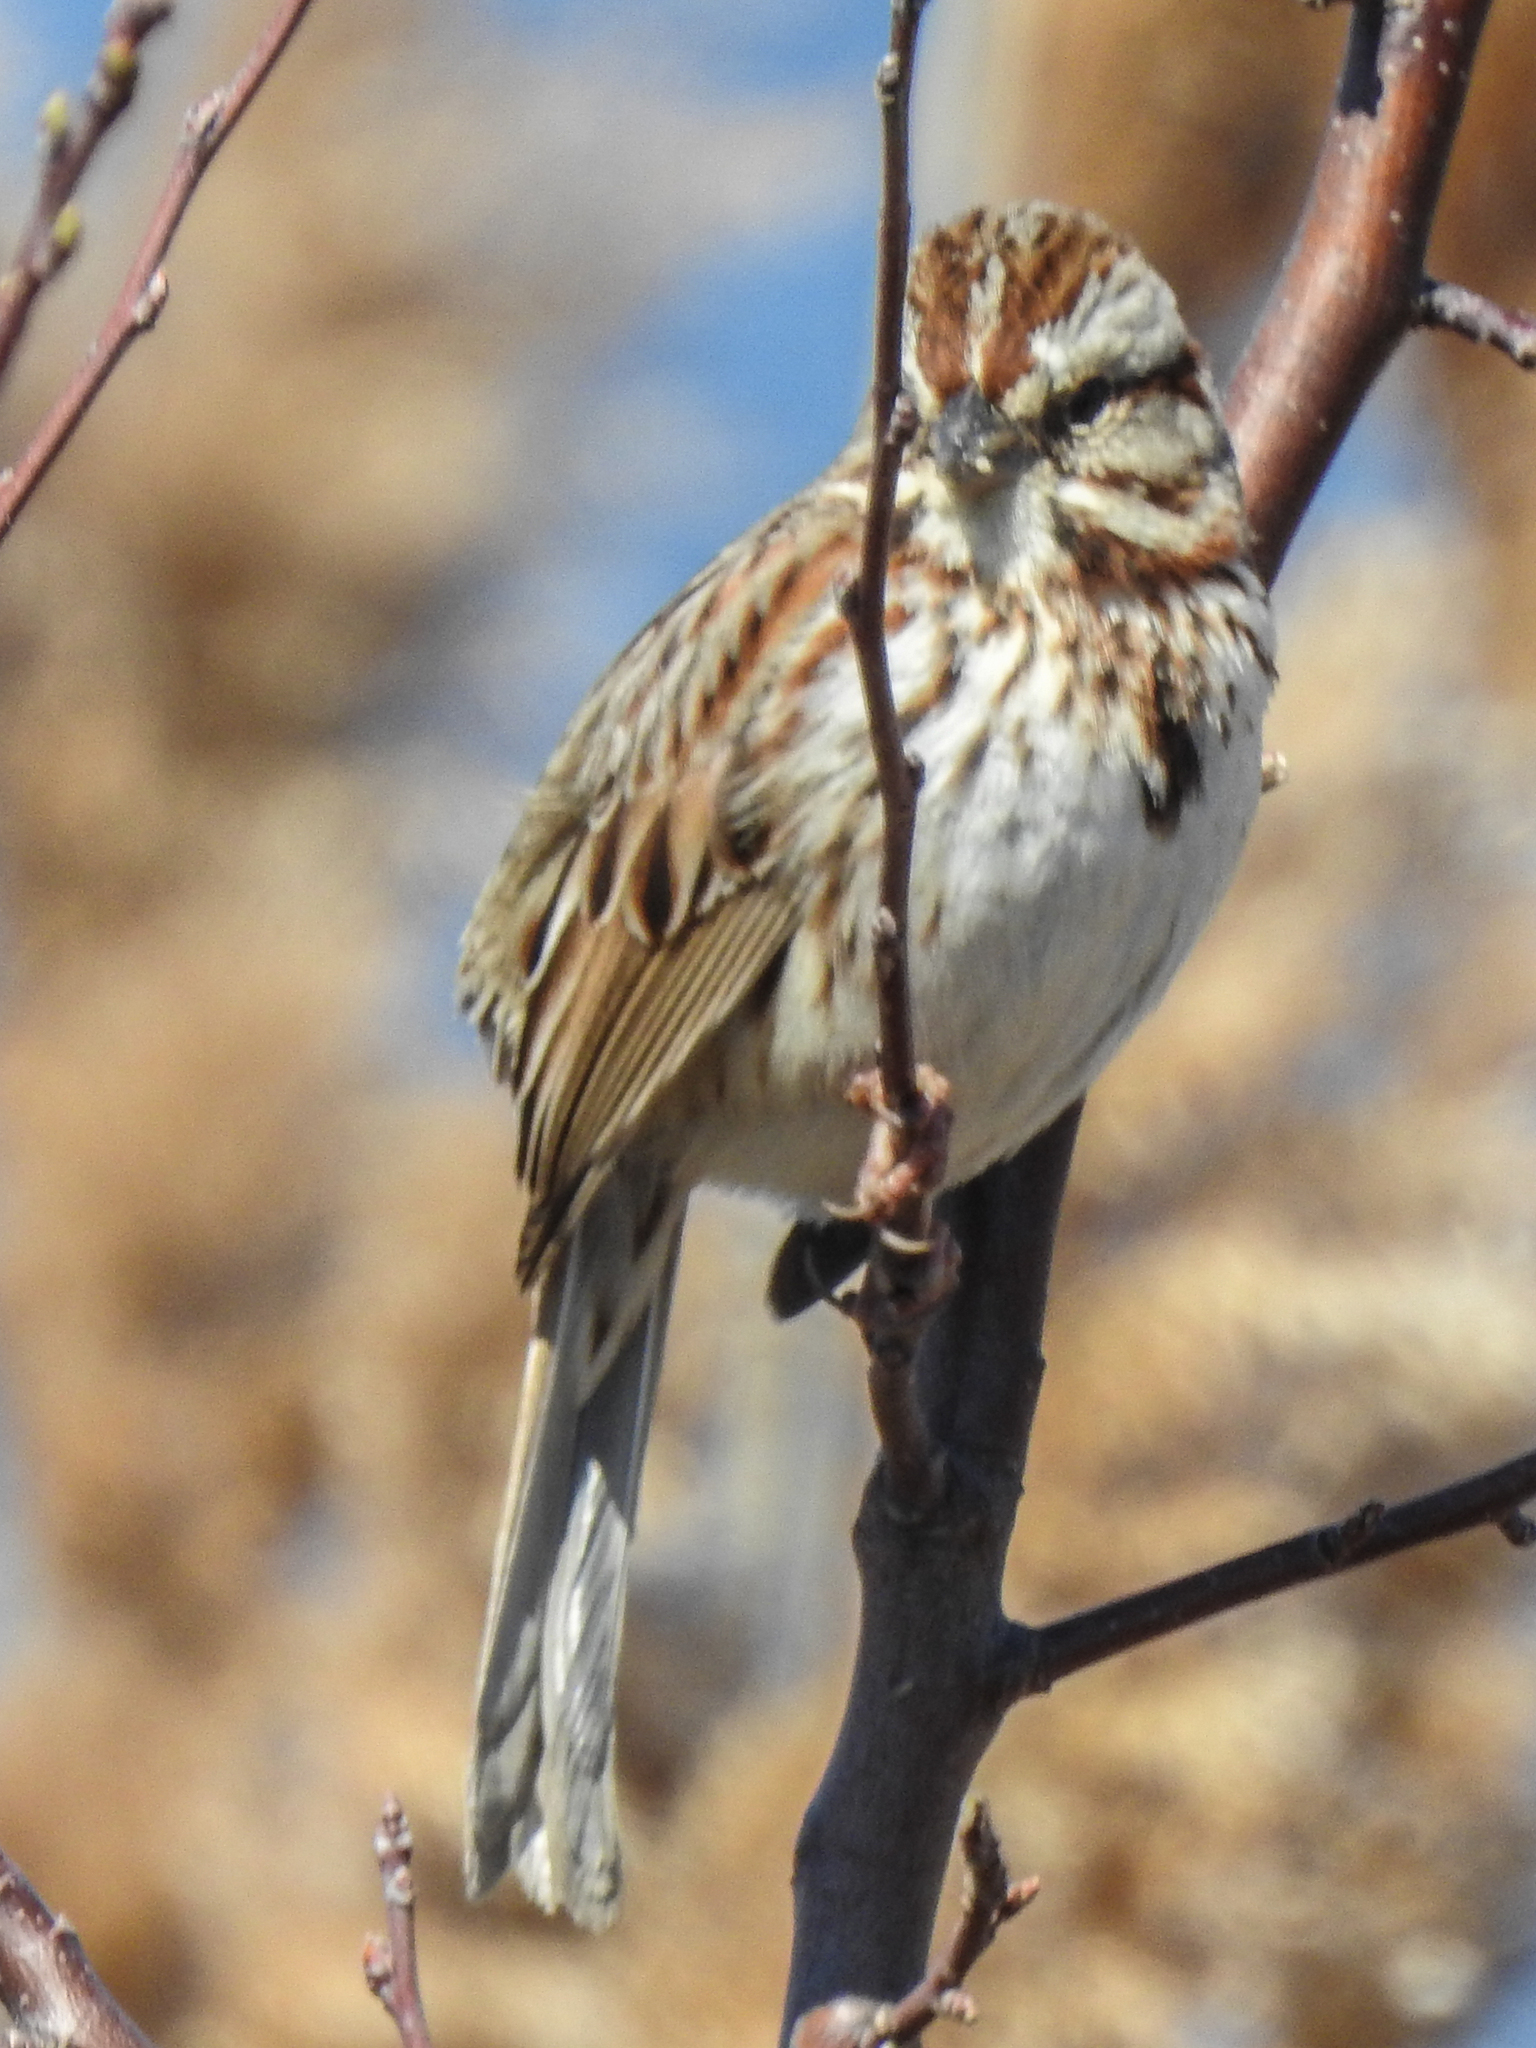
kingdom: Animalia
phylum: Chordata
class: Aves
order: Passeriformes
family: Passerellidae
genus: Melospiza
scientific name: Melospiza melodia
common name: Song sparrow
